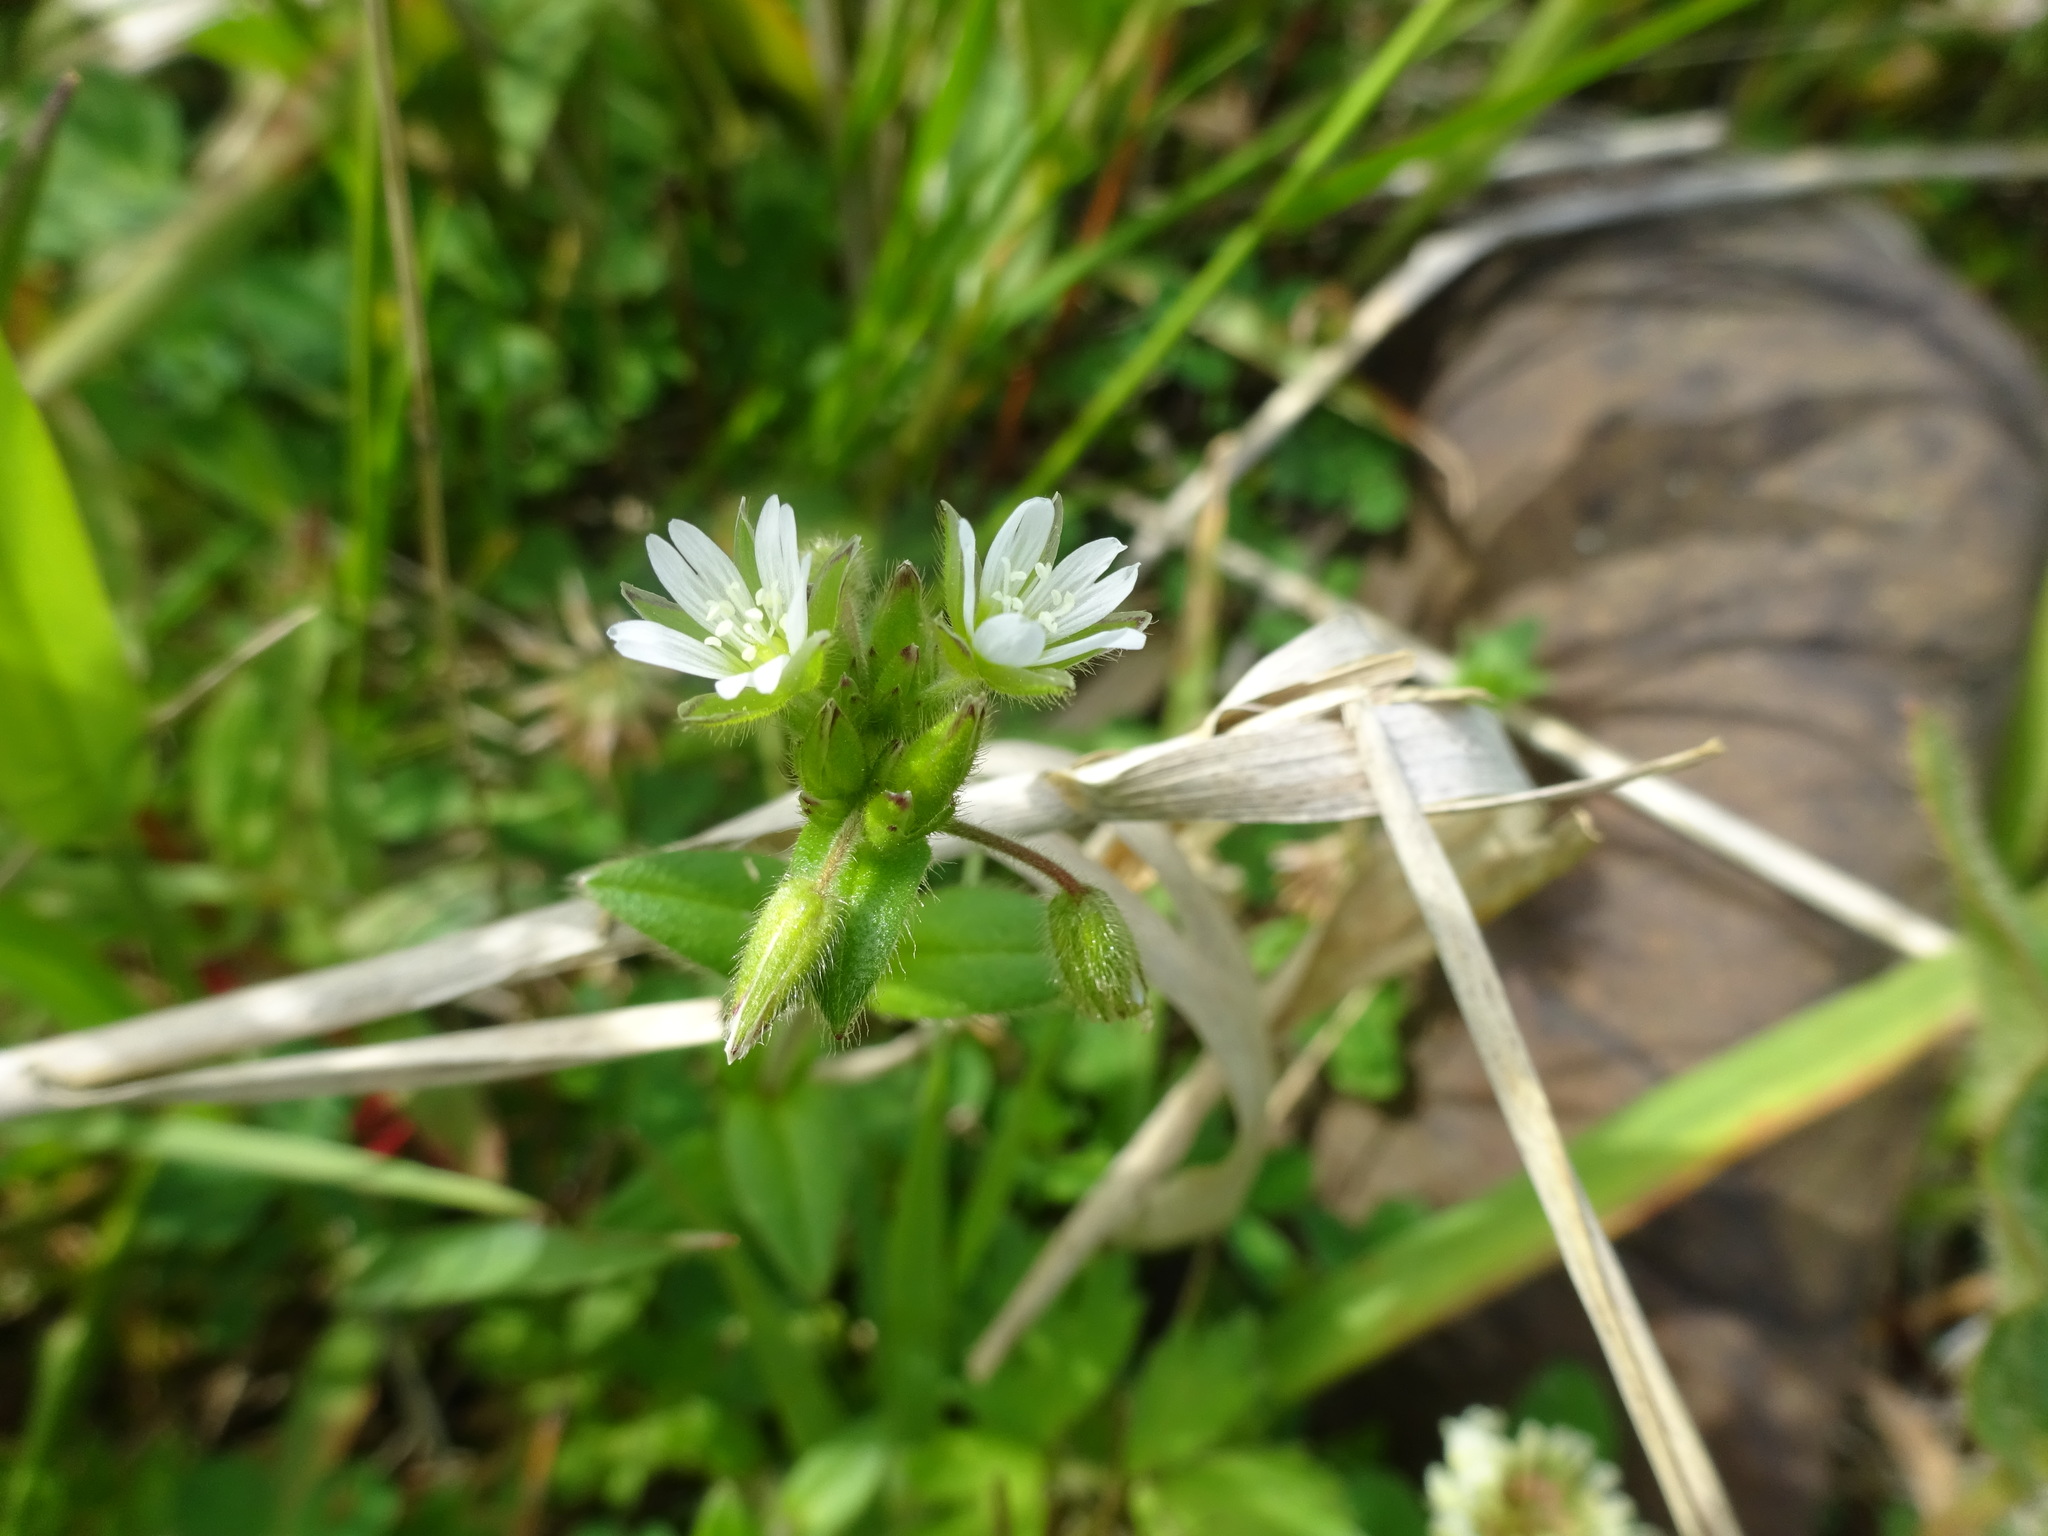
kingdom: Plantae
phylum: Tracheophyta
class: Magnoliopsida
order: Caryophyllales
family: Caryophyllaceae
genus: Cerastium
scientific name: Cerastium fontanum
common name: Common mouse-ear
